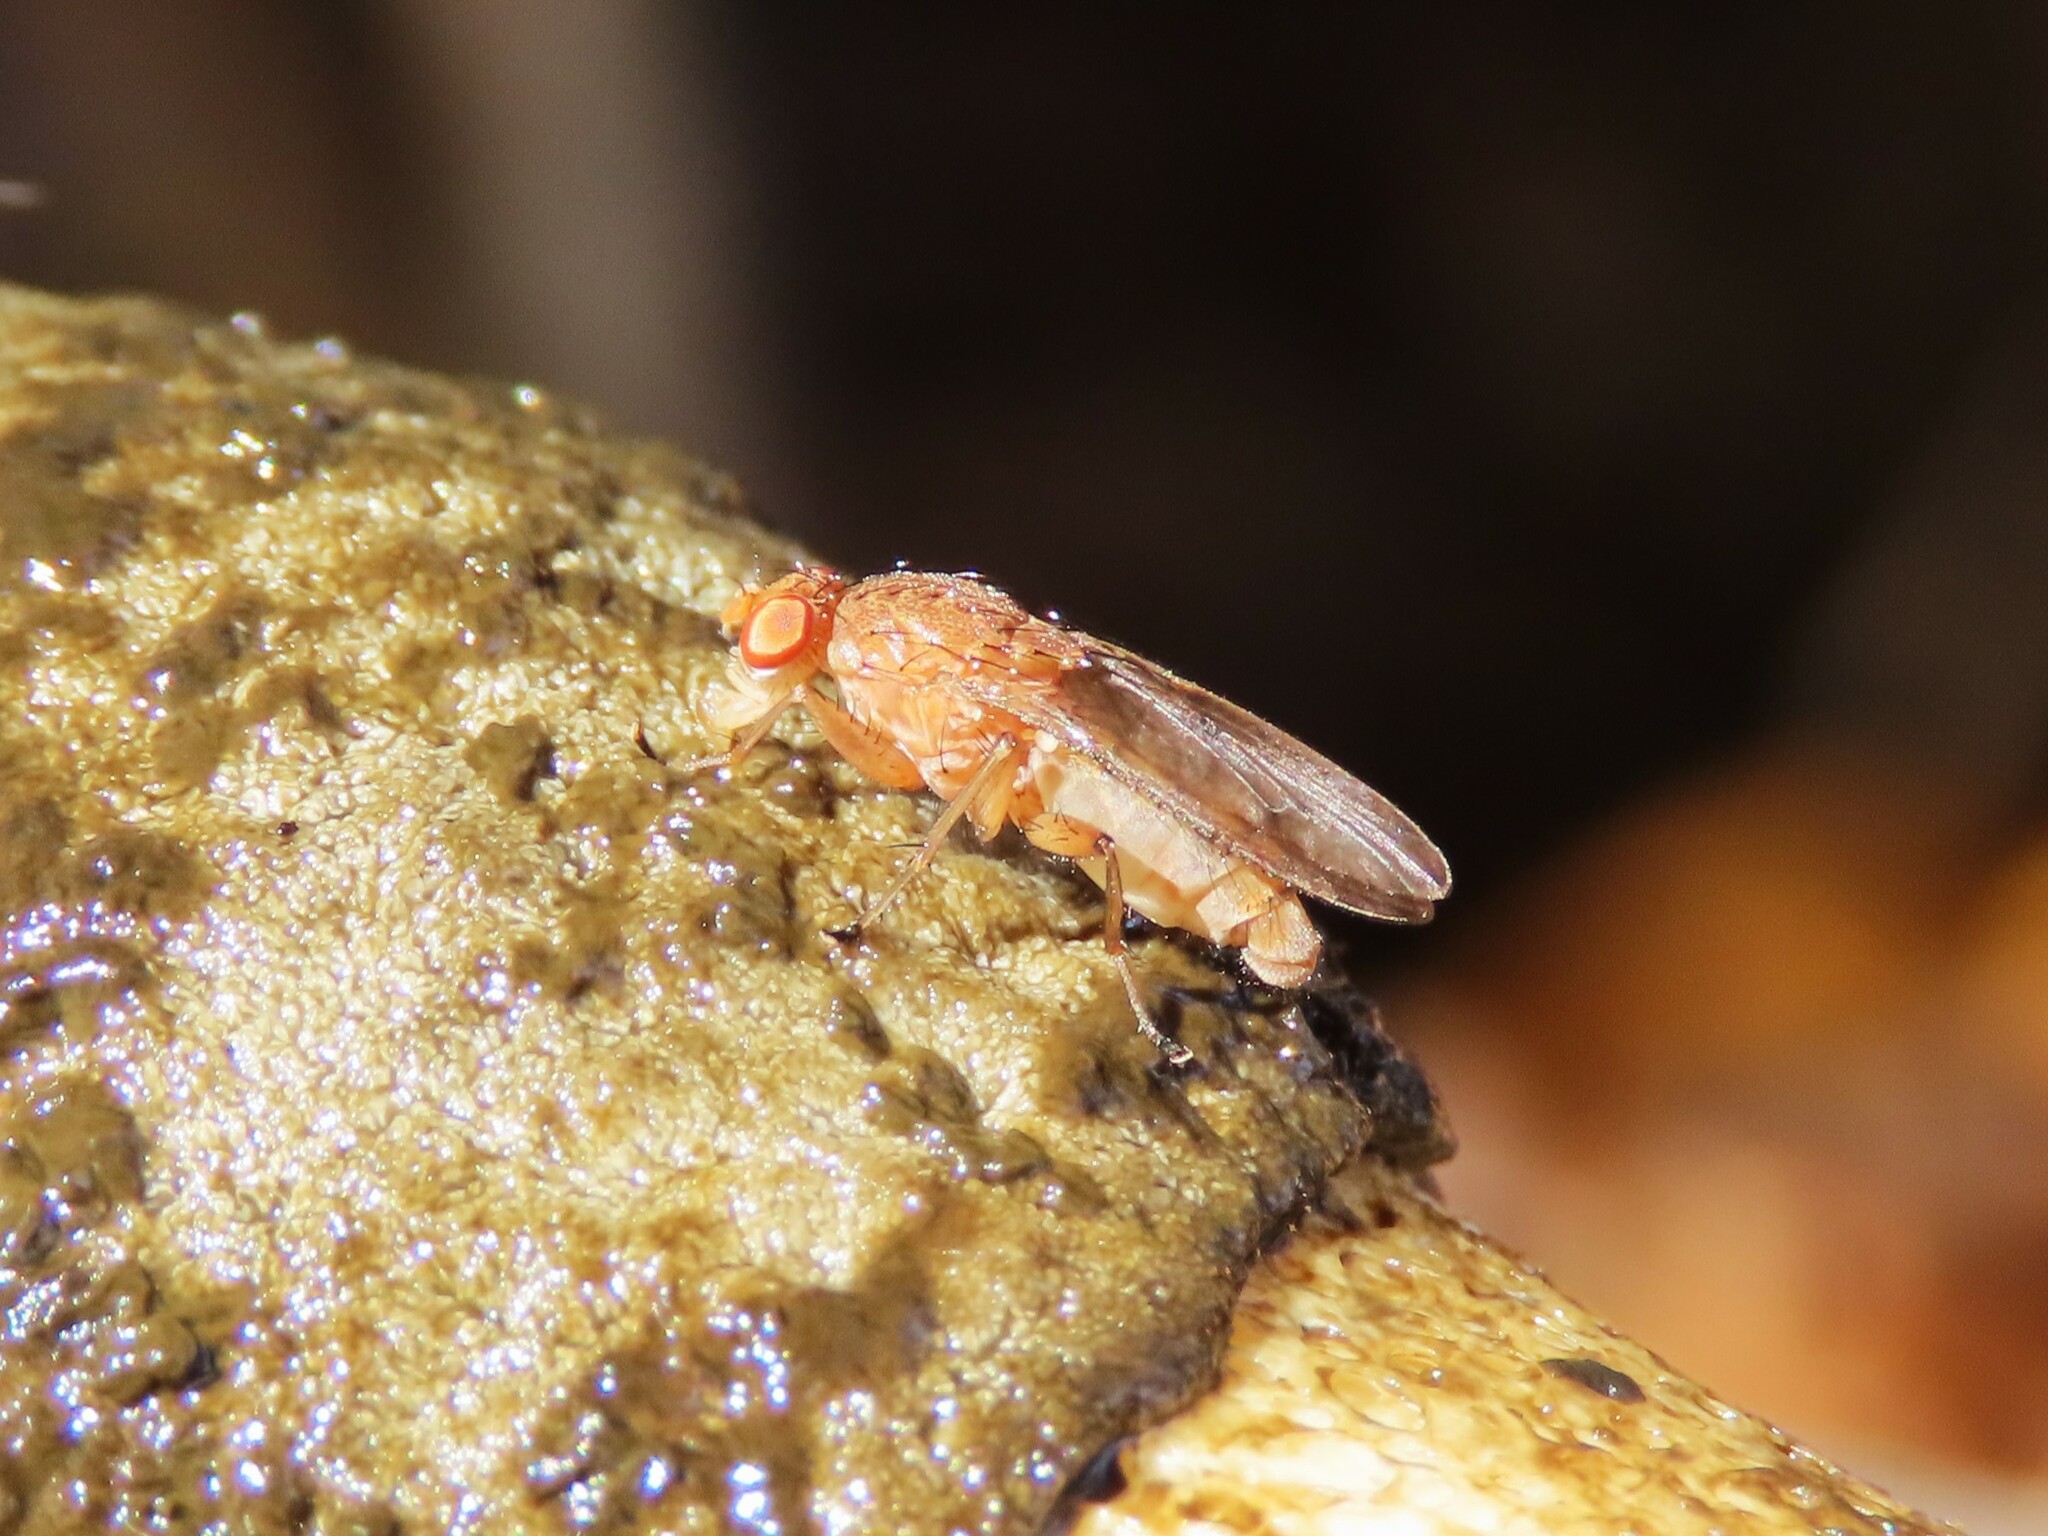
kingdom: Animalia
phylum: Arthropoda
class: Insecta
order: Diptera
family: Heleomyzidae
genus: Suillia
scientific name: Suillia quinquepunctata
